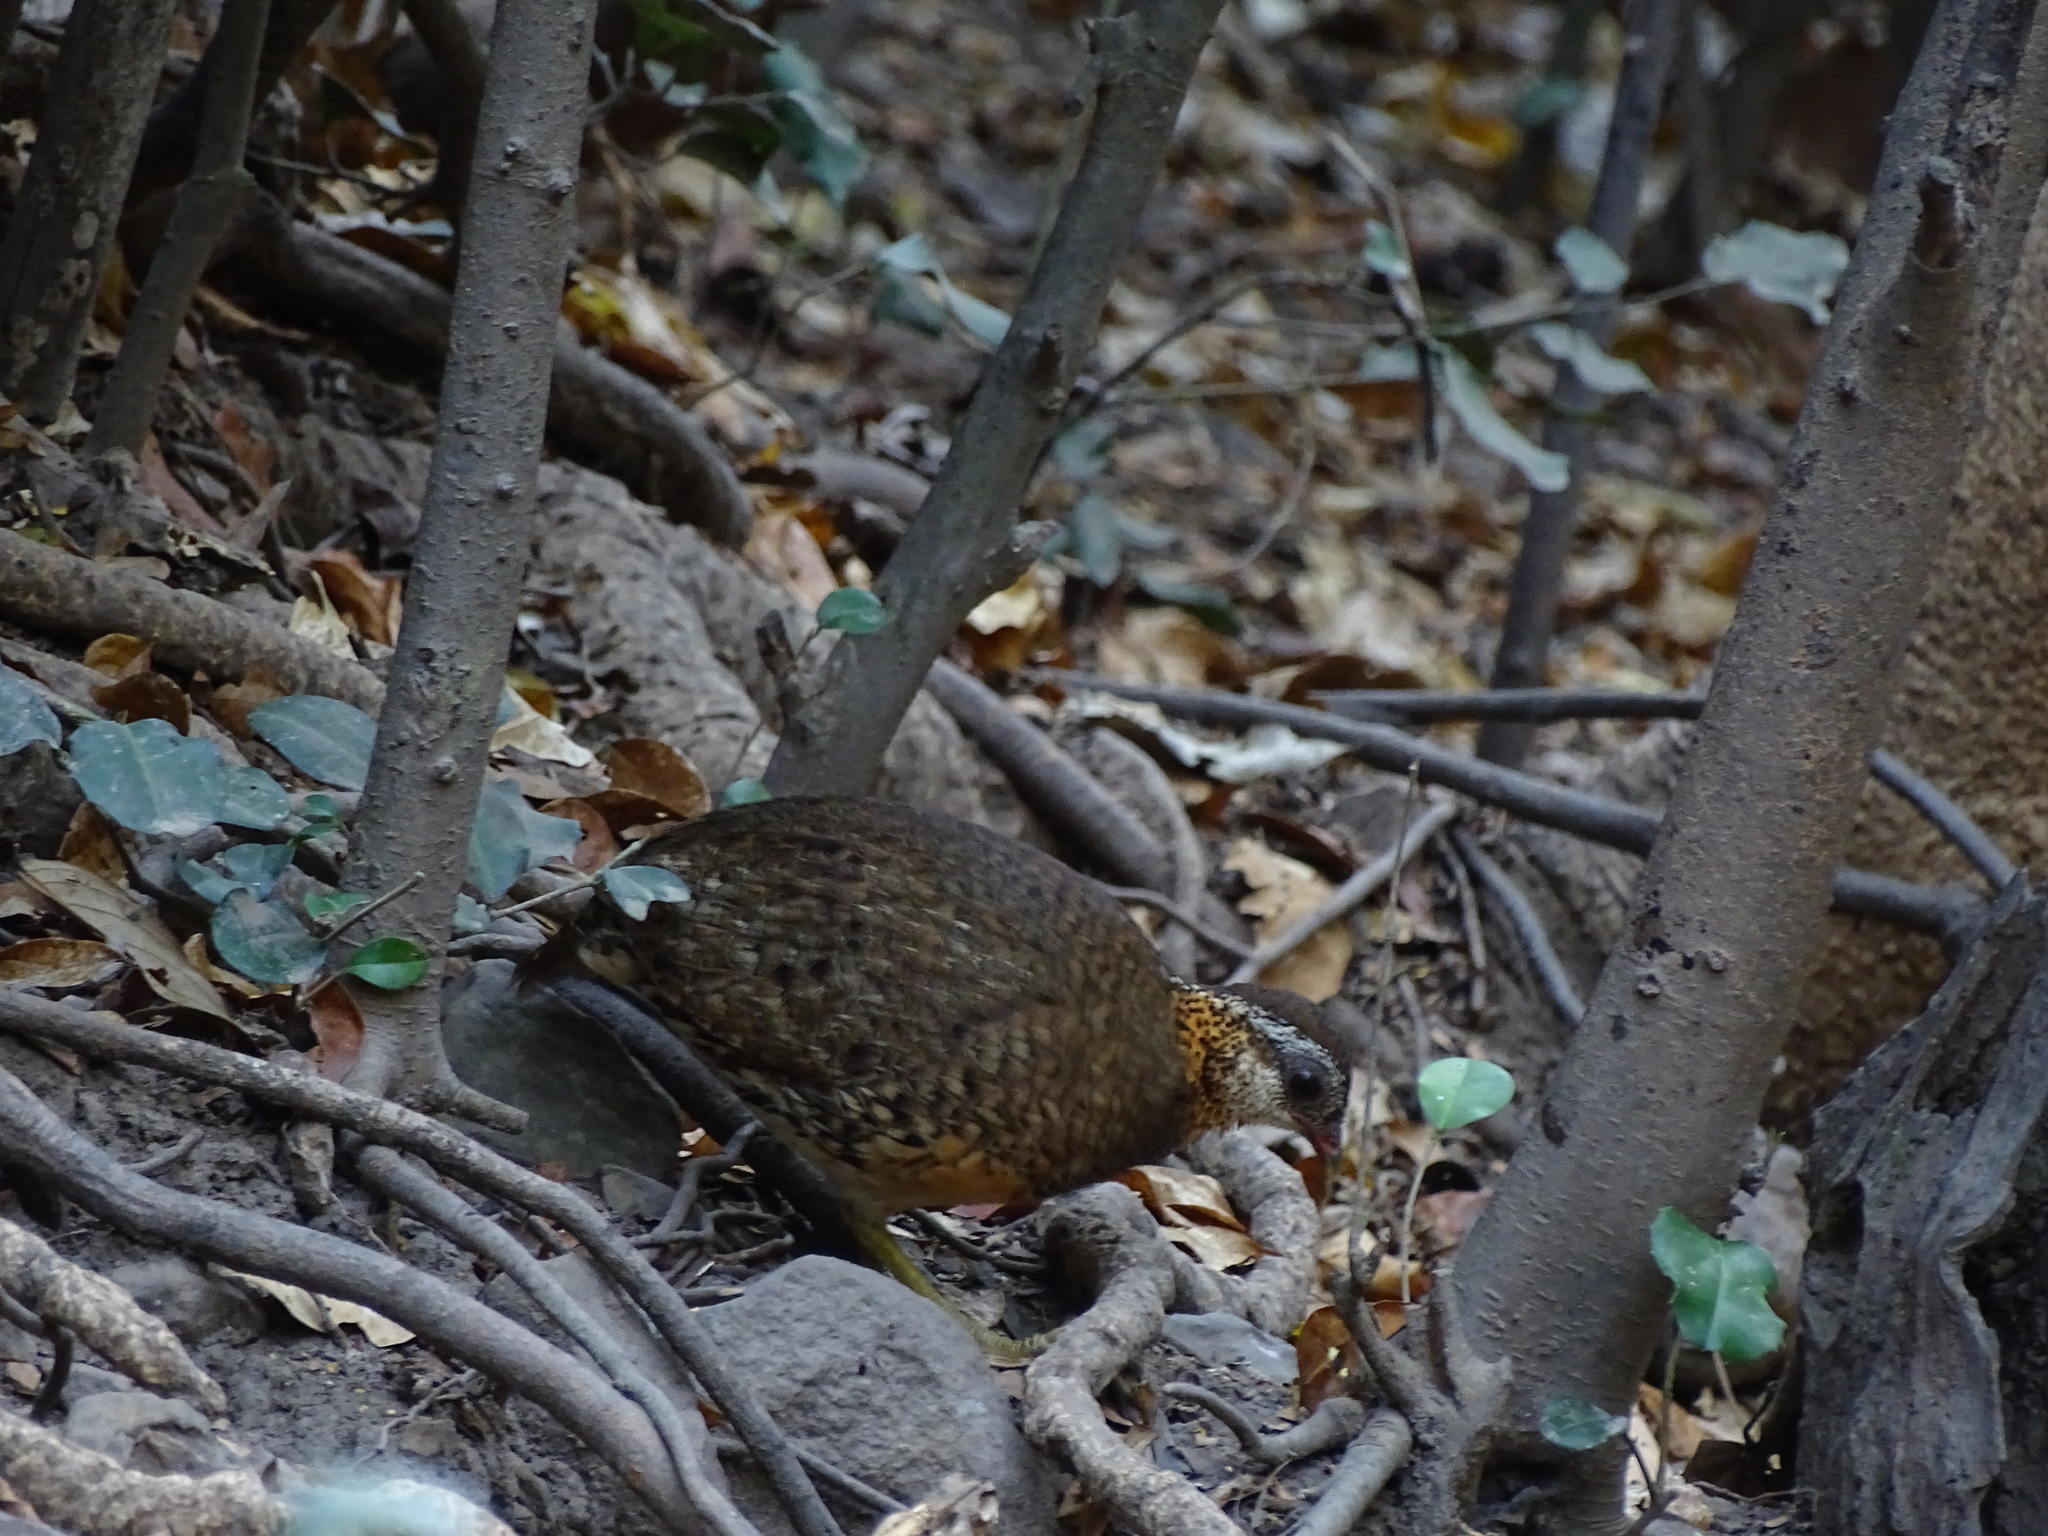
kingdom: Animalia
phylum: Chordata
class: Aves
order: Galliformes
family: Phasianidae
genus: Tropicoperdix
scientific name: Tropicoperdix chloropus
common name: Green-legged partridge
